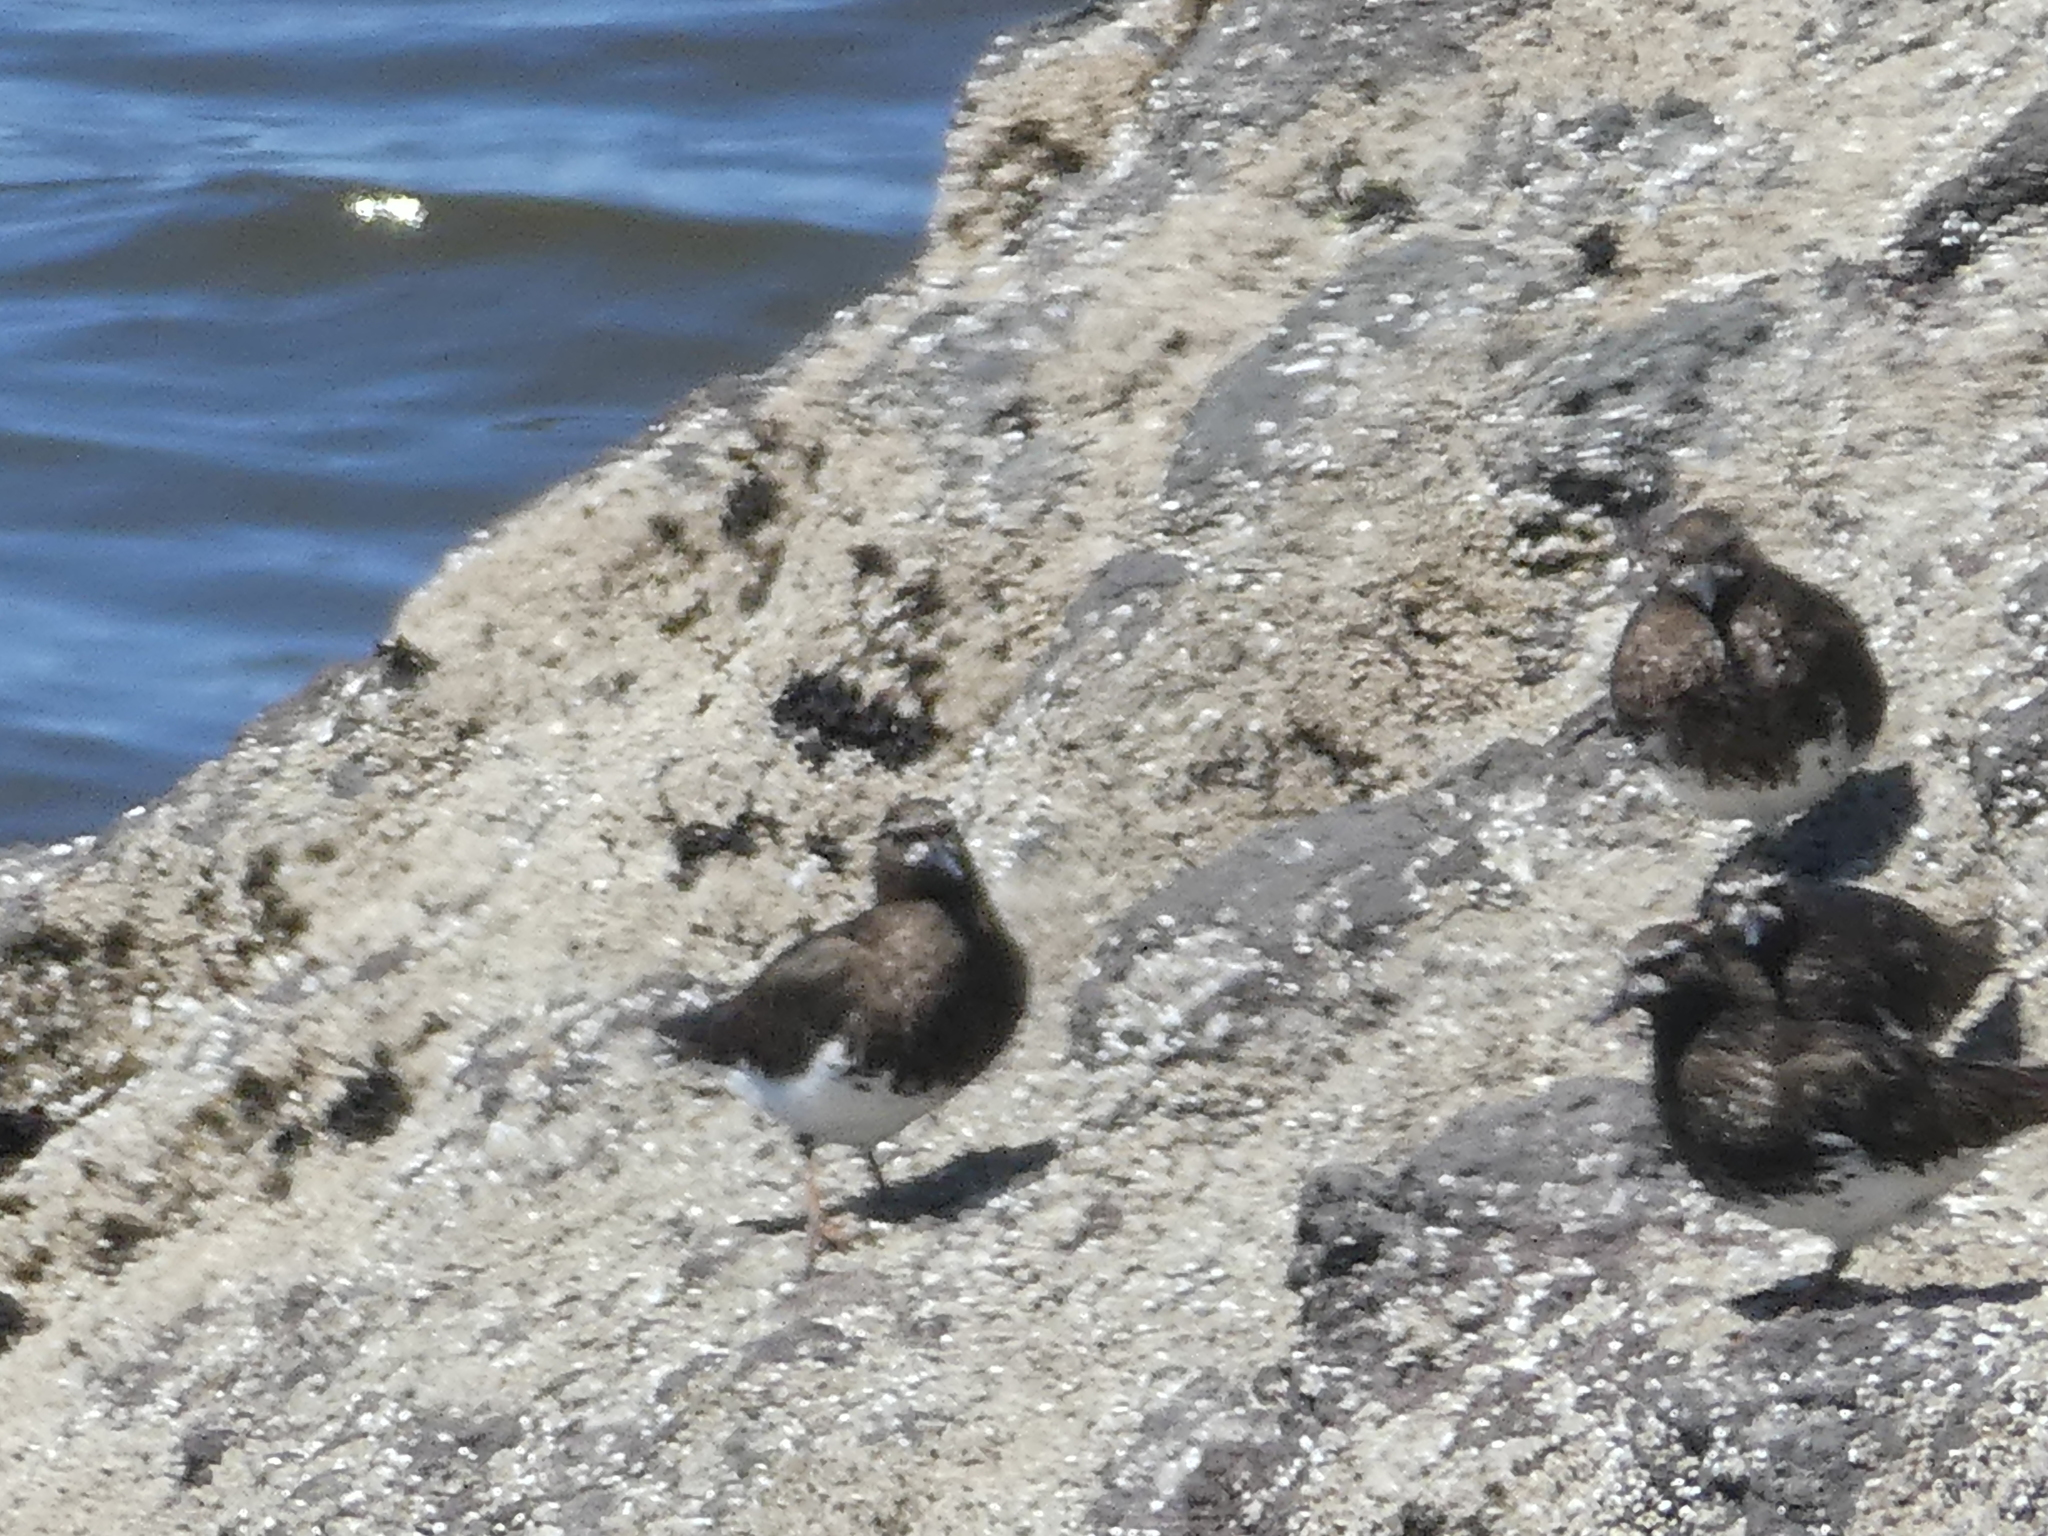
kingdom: Animalia
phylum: Chordata
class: Aves
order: Charadriiformes
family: Scolopacidae
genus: Arenaria
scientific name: Arenaria melanocephala
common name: Black turnstone
